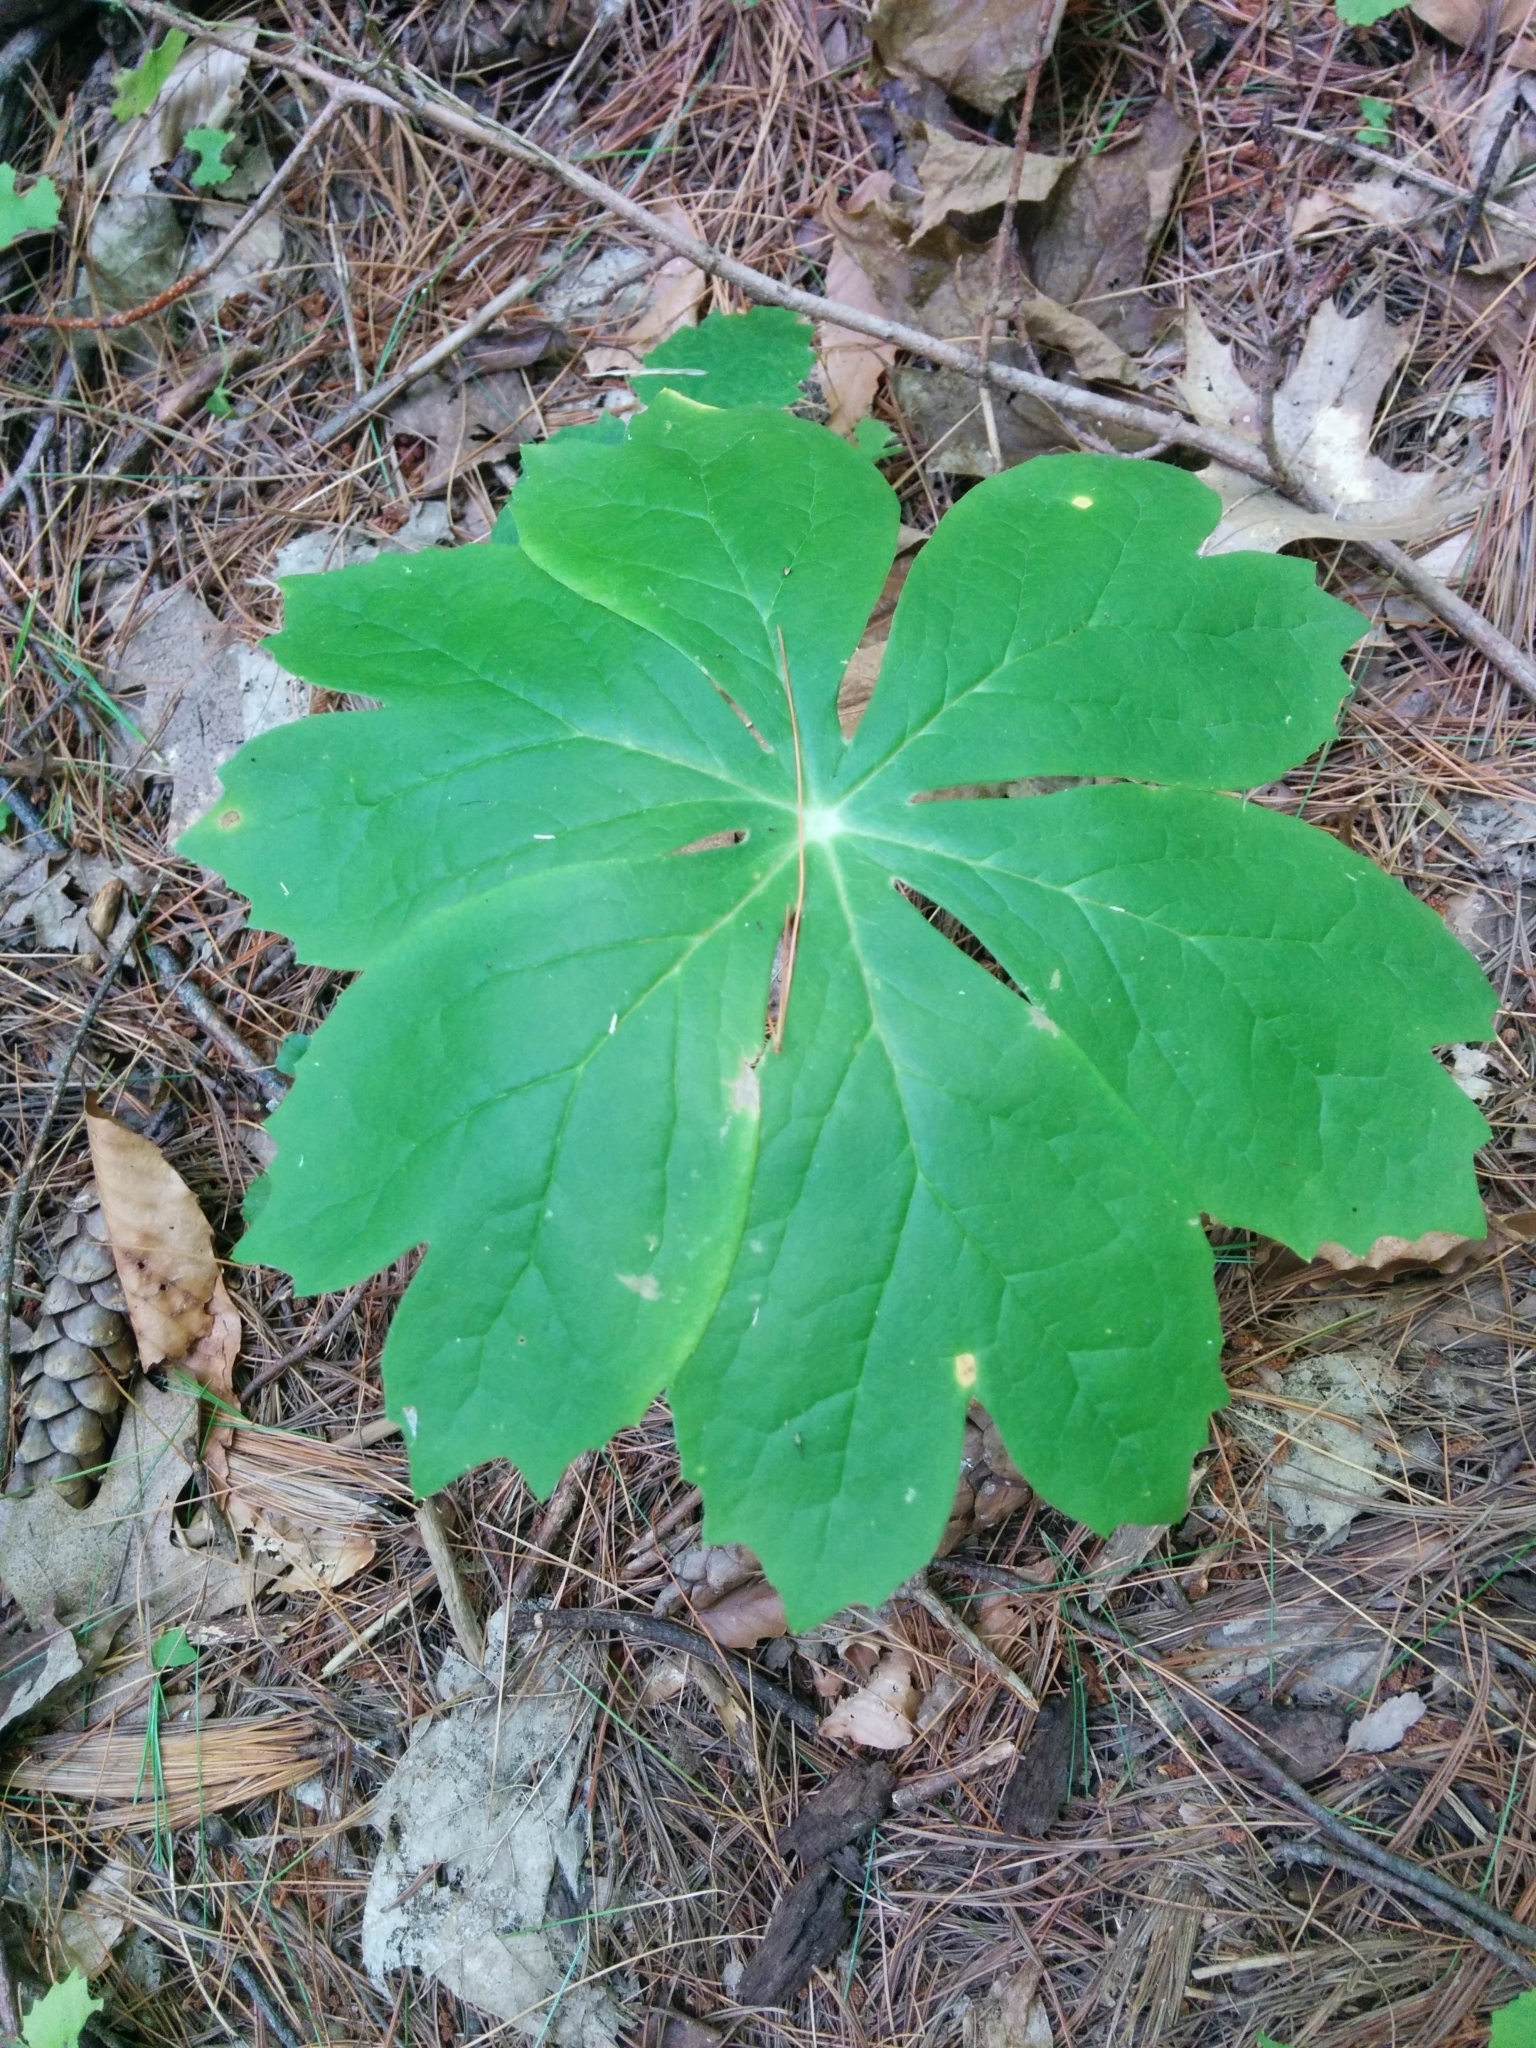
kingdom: Plantae
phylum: Tracheophyta
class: Magnoliopsida
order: Ranunculales
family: Berberidaceae
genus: Podophyllum
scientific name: Podophyllum peltatum
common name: Wild mandrake
